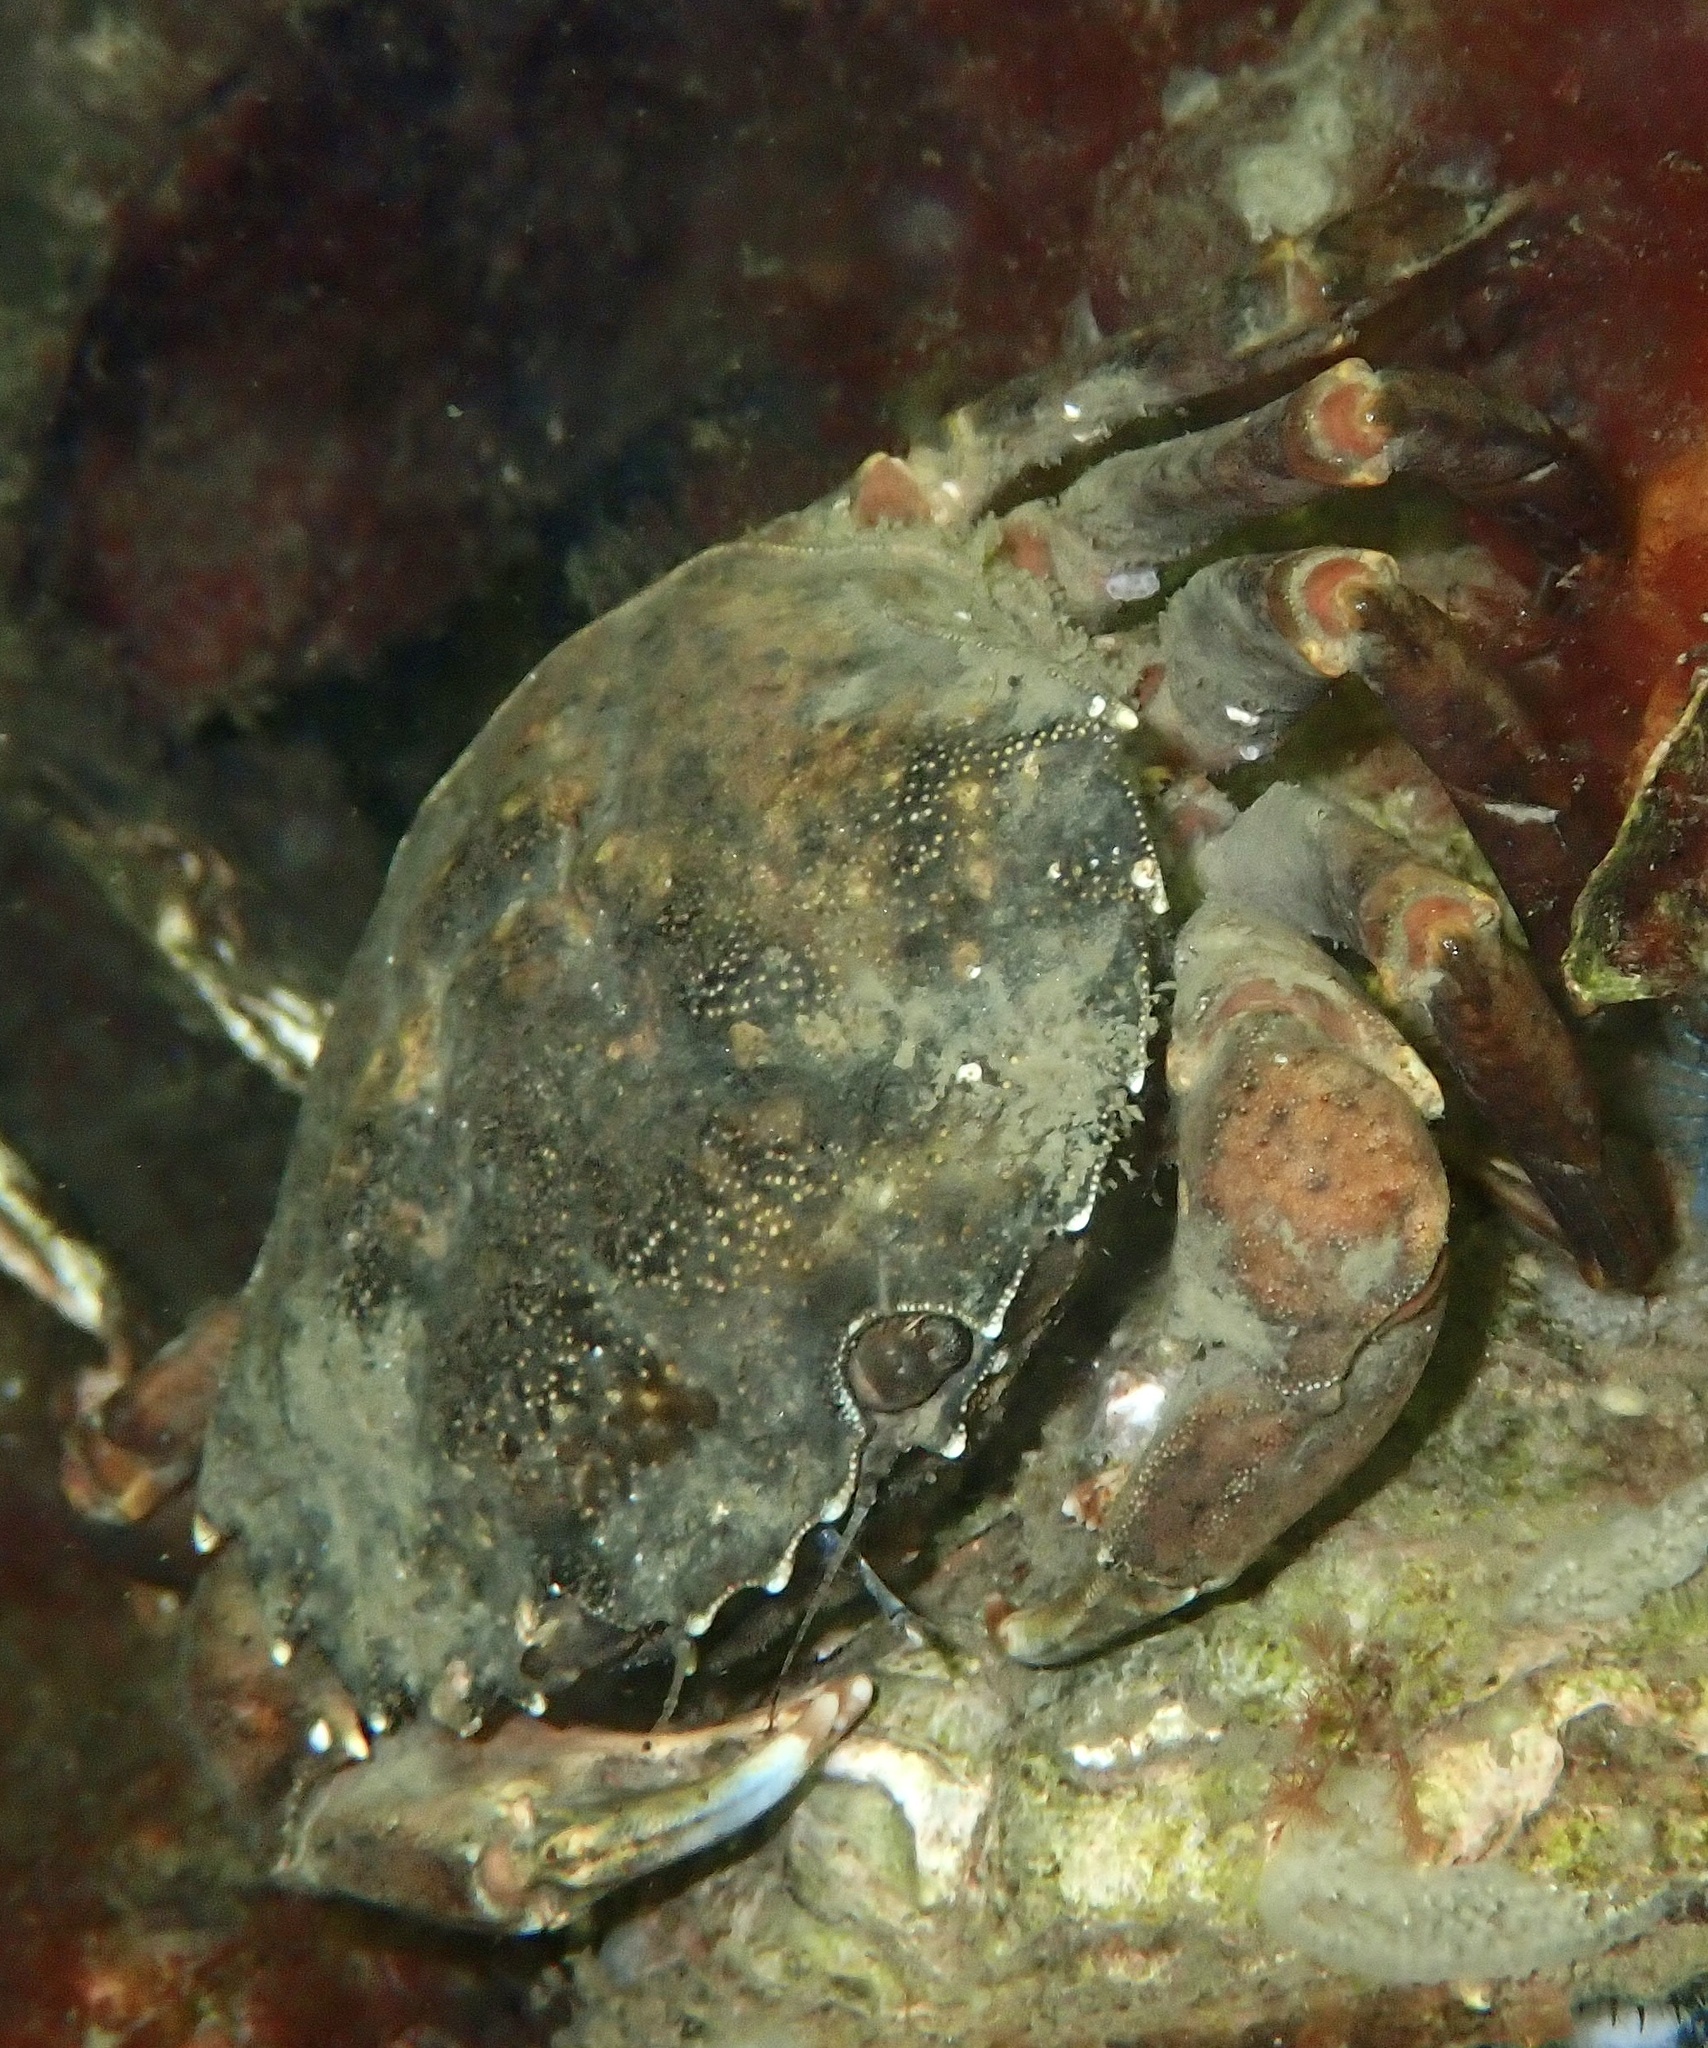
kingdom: Animalia
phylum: Arthropoda
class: Malacostraca
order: Decapoda
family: Carcinidae
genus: Carcinus
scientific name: Carcinus maenas
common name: European green crab
